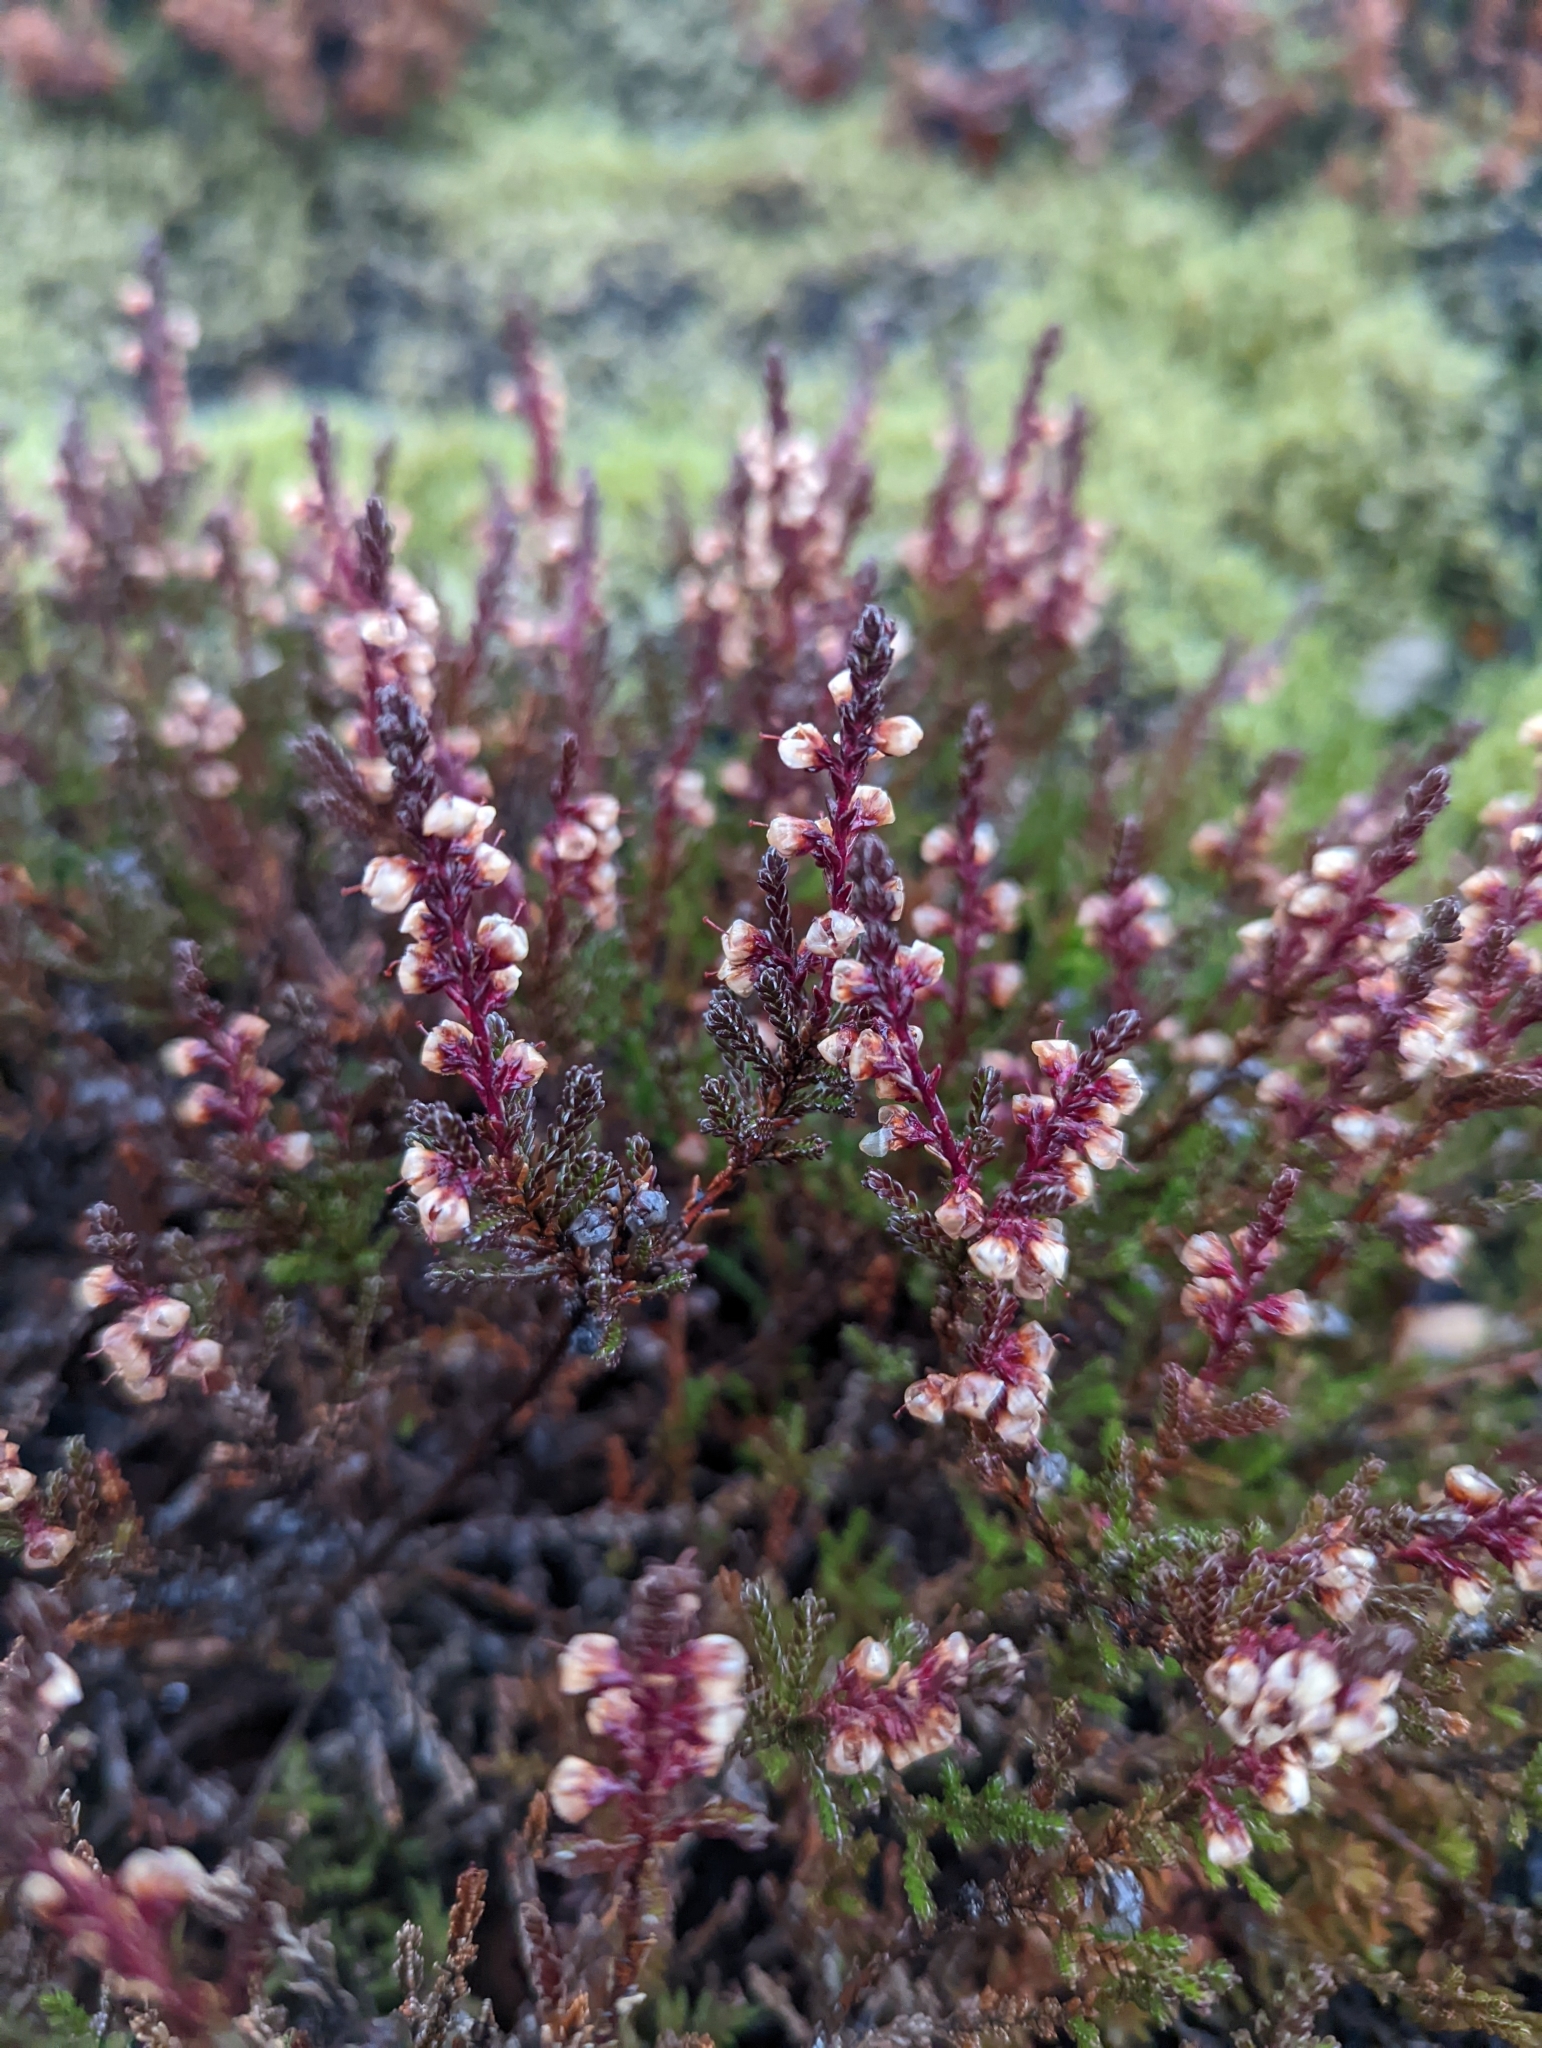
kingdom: Plantae
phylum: Tracheophyta
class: Magnoliopsida
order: Ericales
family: Ericaceae
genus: Calluna
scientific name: Calluna vulgaris
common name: Heather
